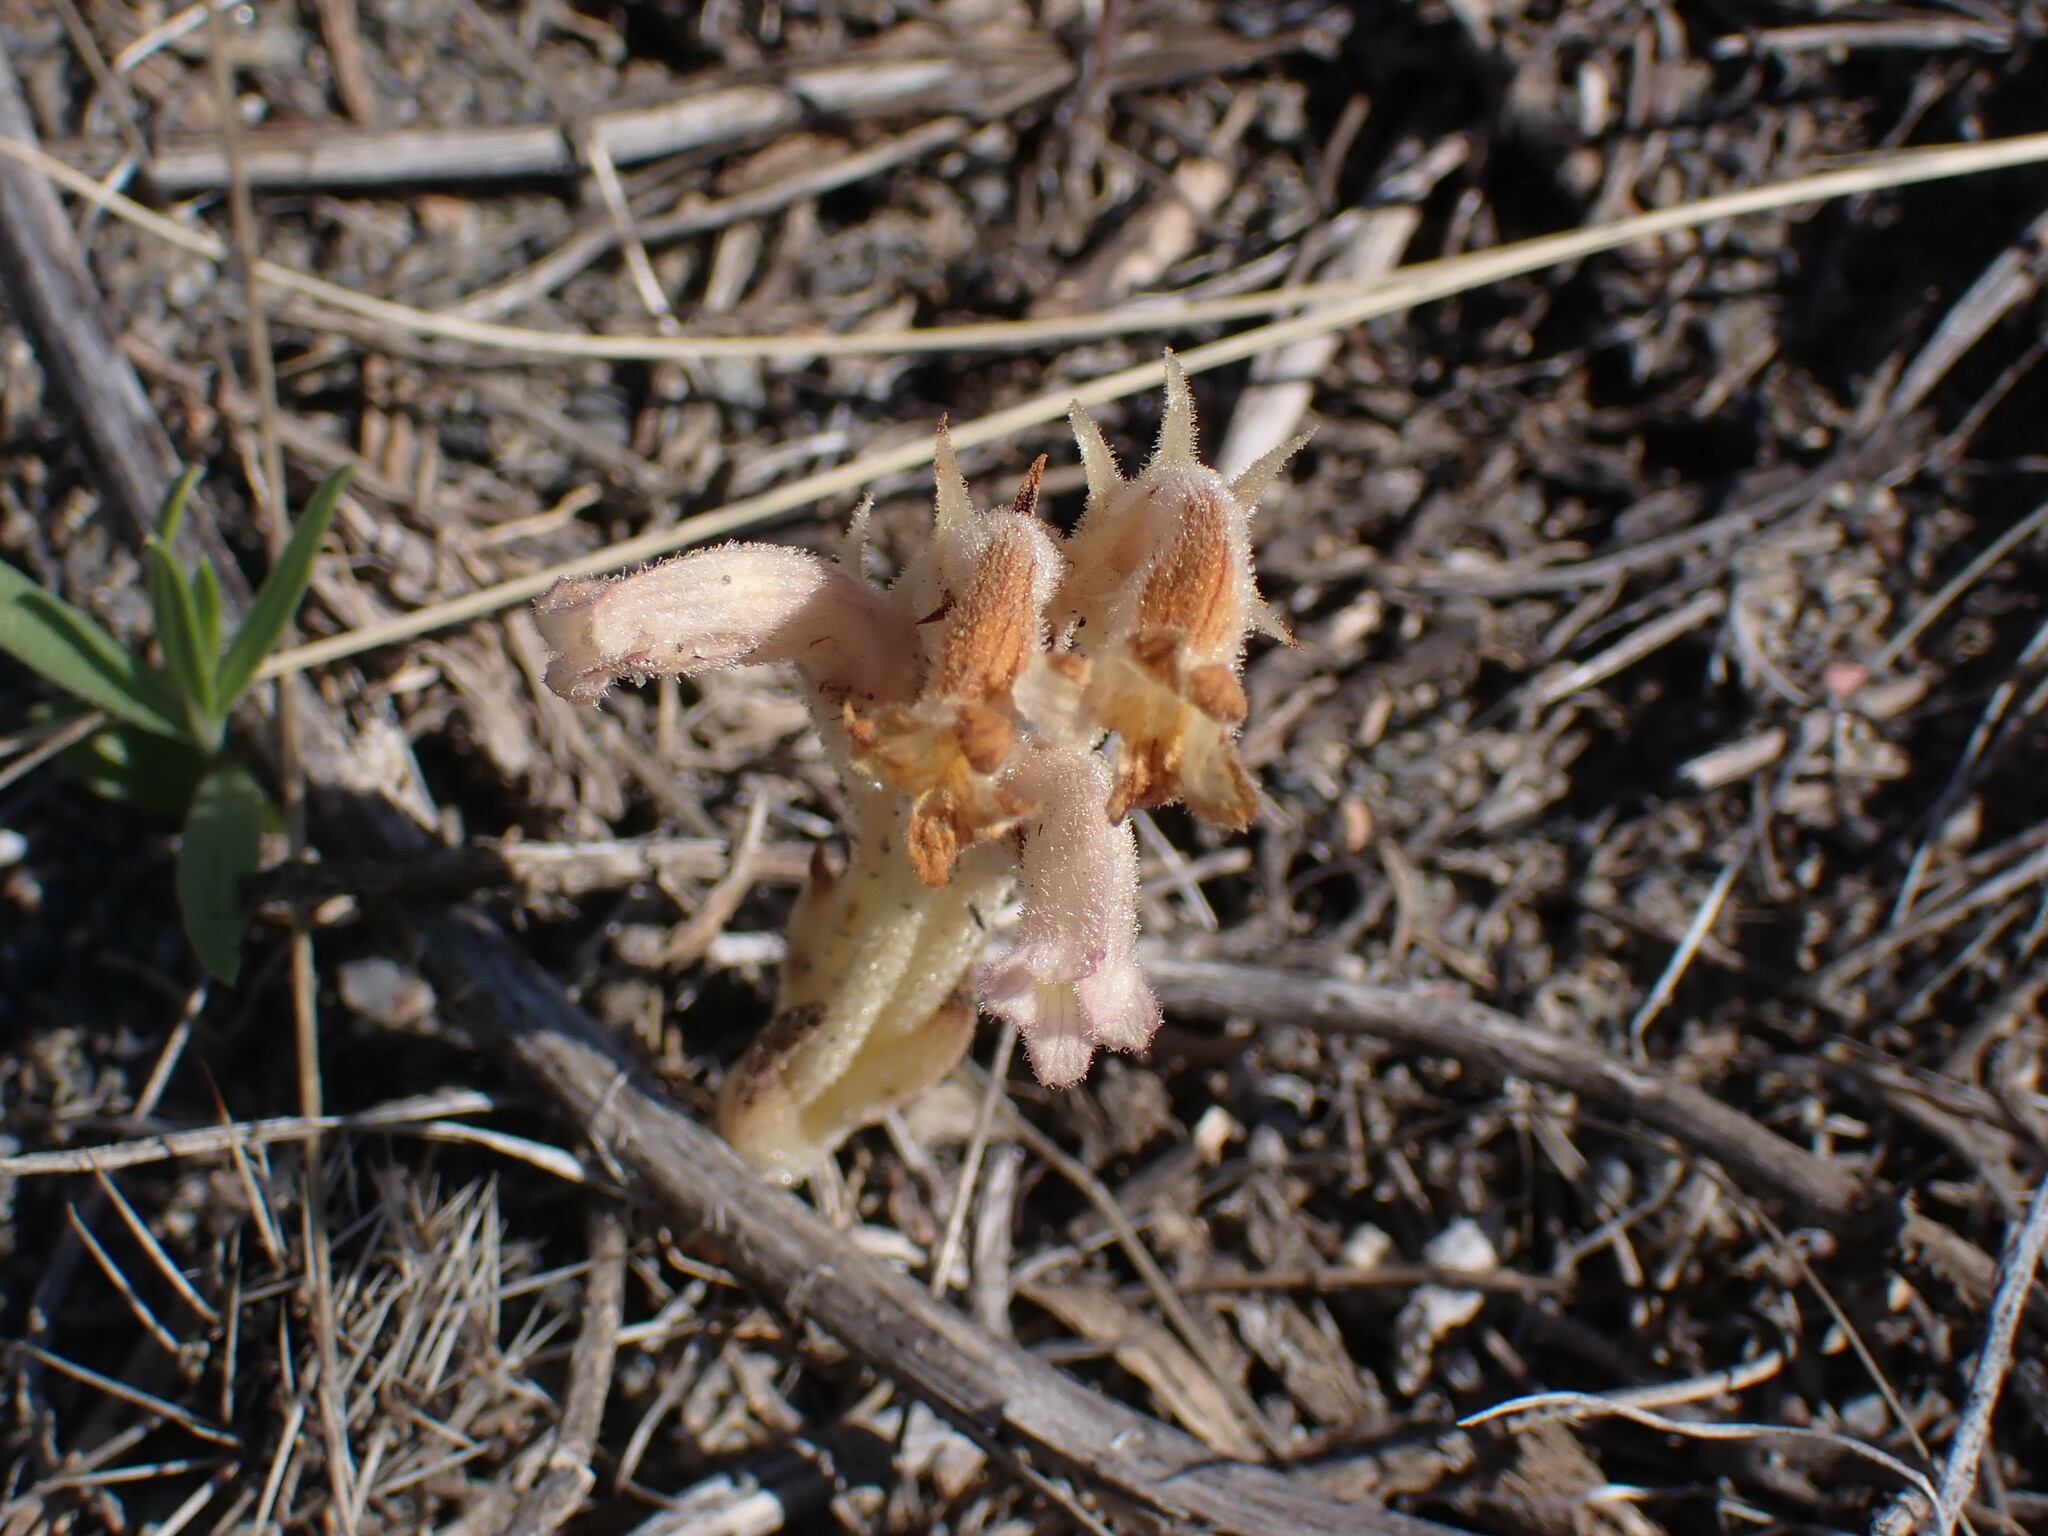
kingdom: Plantae
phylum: Tracheophyta
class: Magnoliopsida
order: Lamiales
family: Orobanchaceae
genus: Aphyllon
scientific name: Aphyllon fasciculatum
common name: Clustered broomrape
